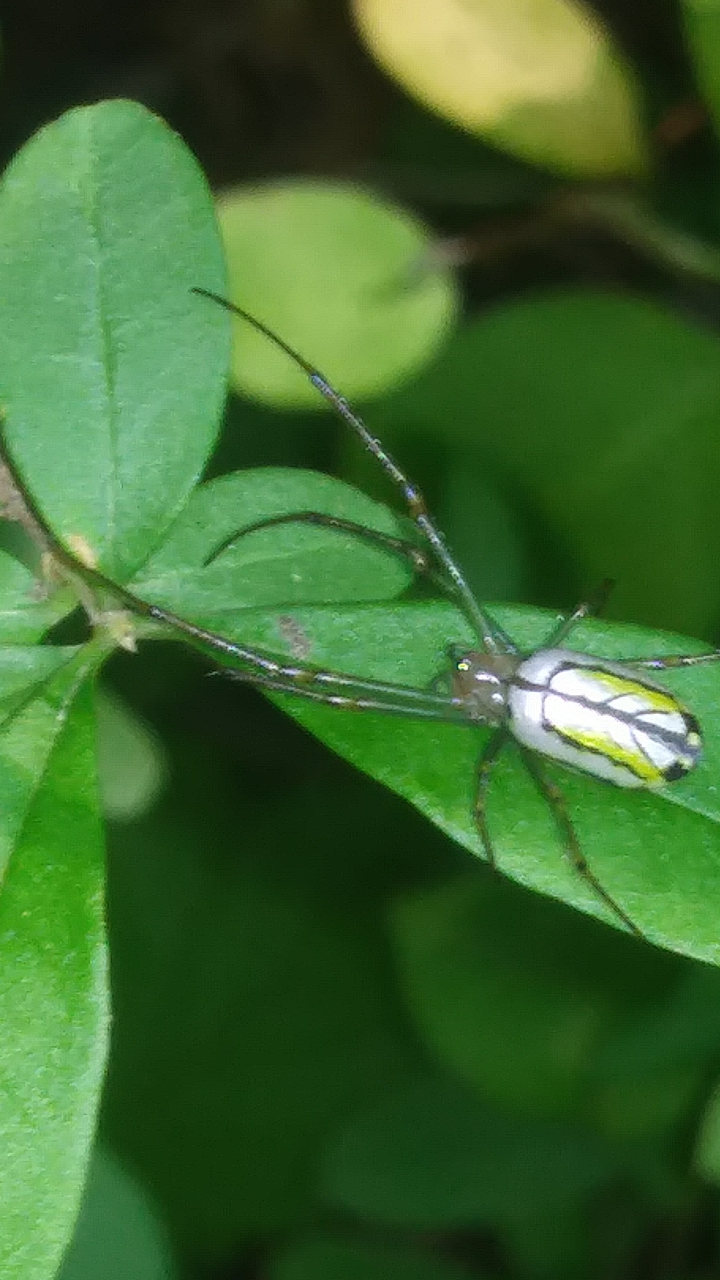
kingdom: Animalia
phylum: Arthropoda
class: Arachnida
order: Araneae
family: Tetragnathidae
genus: Leucauge
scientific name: Leucauge venusta
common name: Longjawed orb weavers
